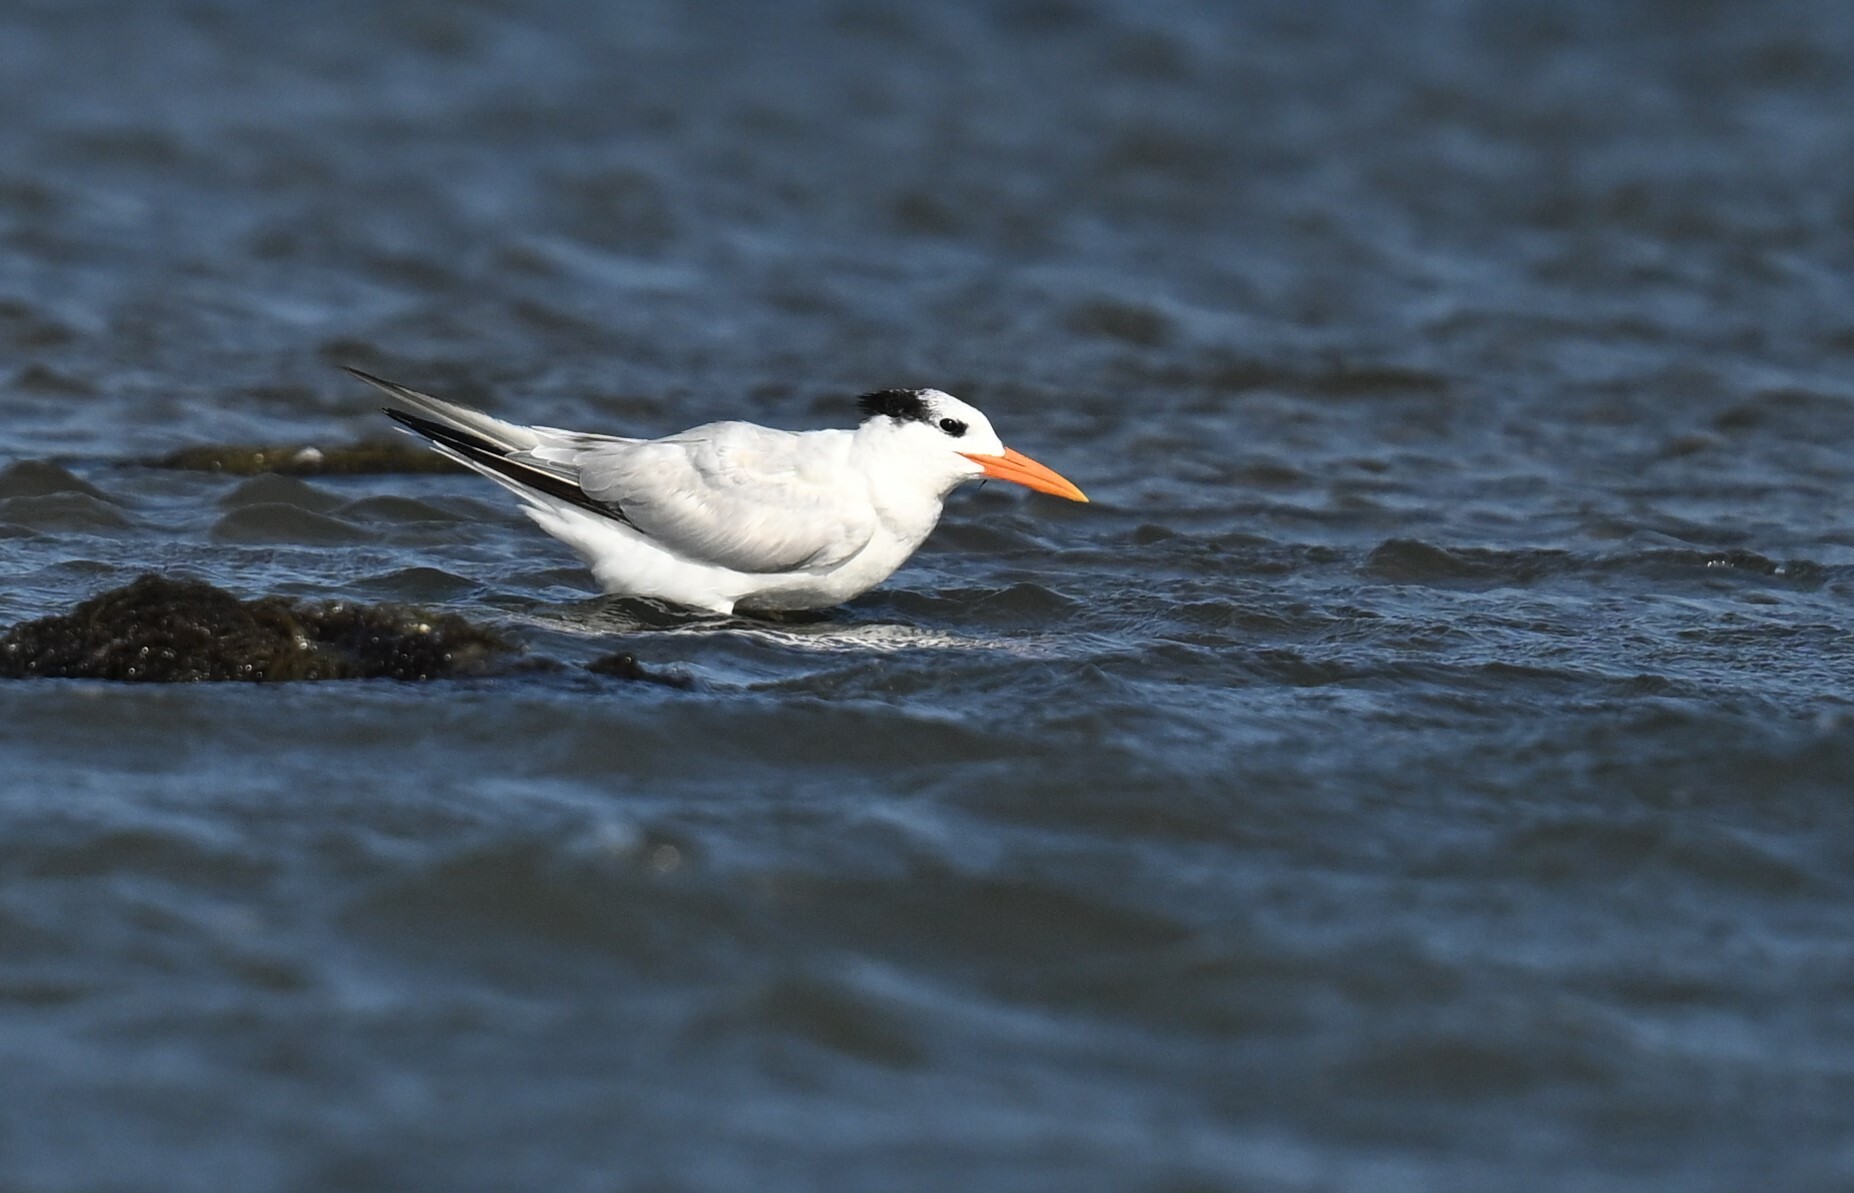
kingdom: Animalia
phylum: Chordata
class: Aves
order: Charadriiformes
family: Laridae
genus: Thalasseus
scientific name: Thalasseus maximus
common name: Royal tern
